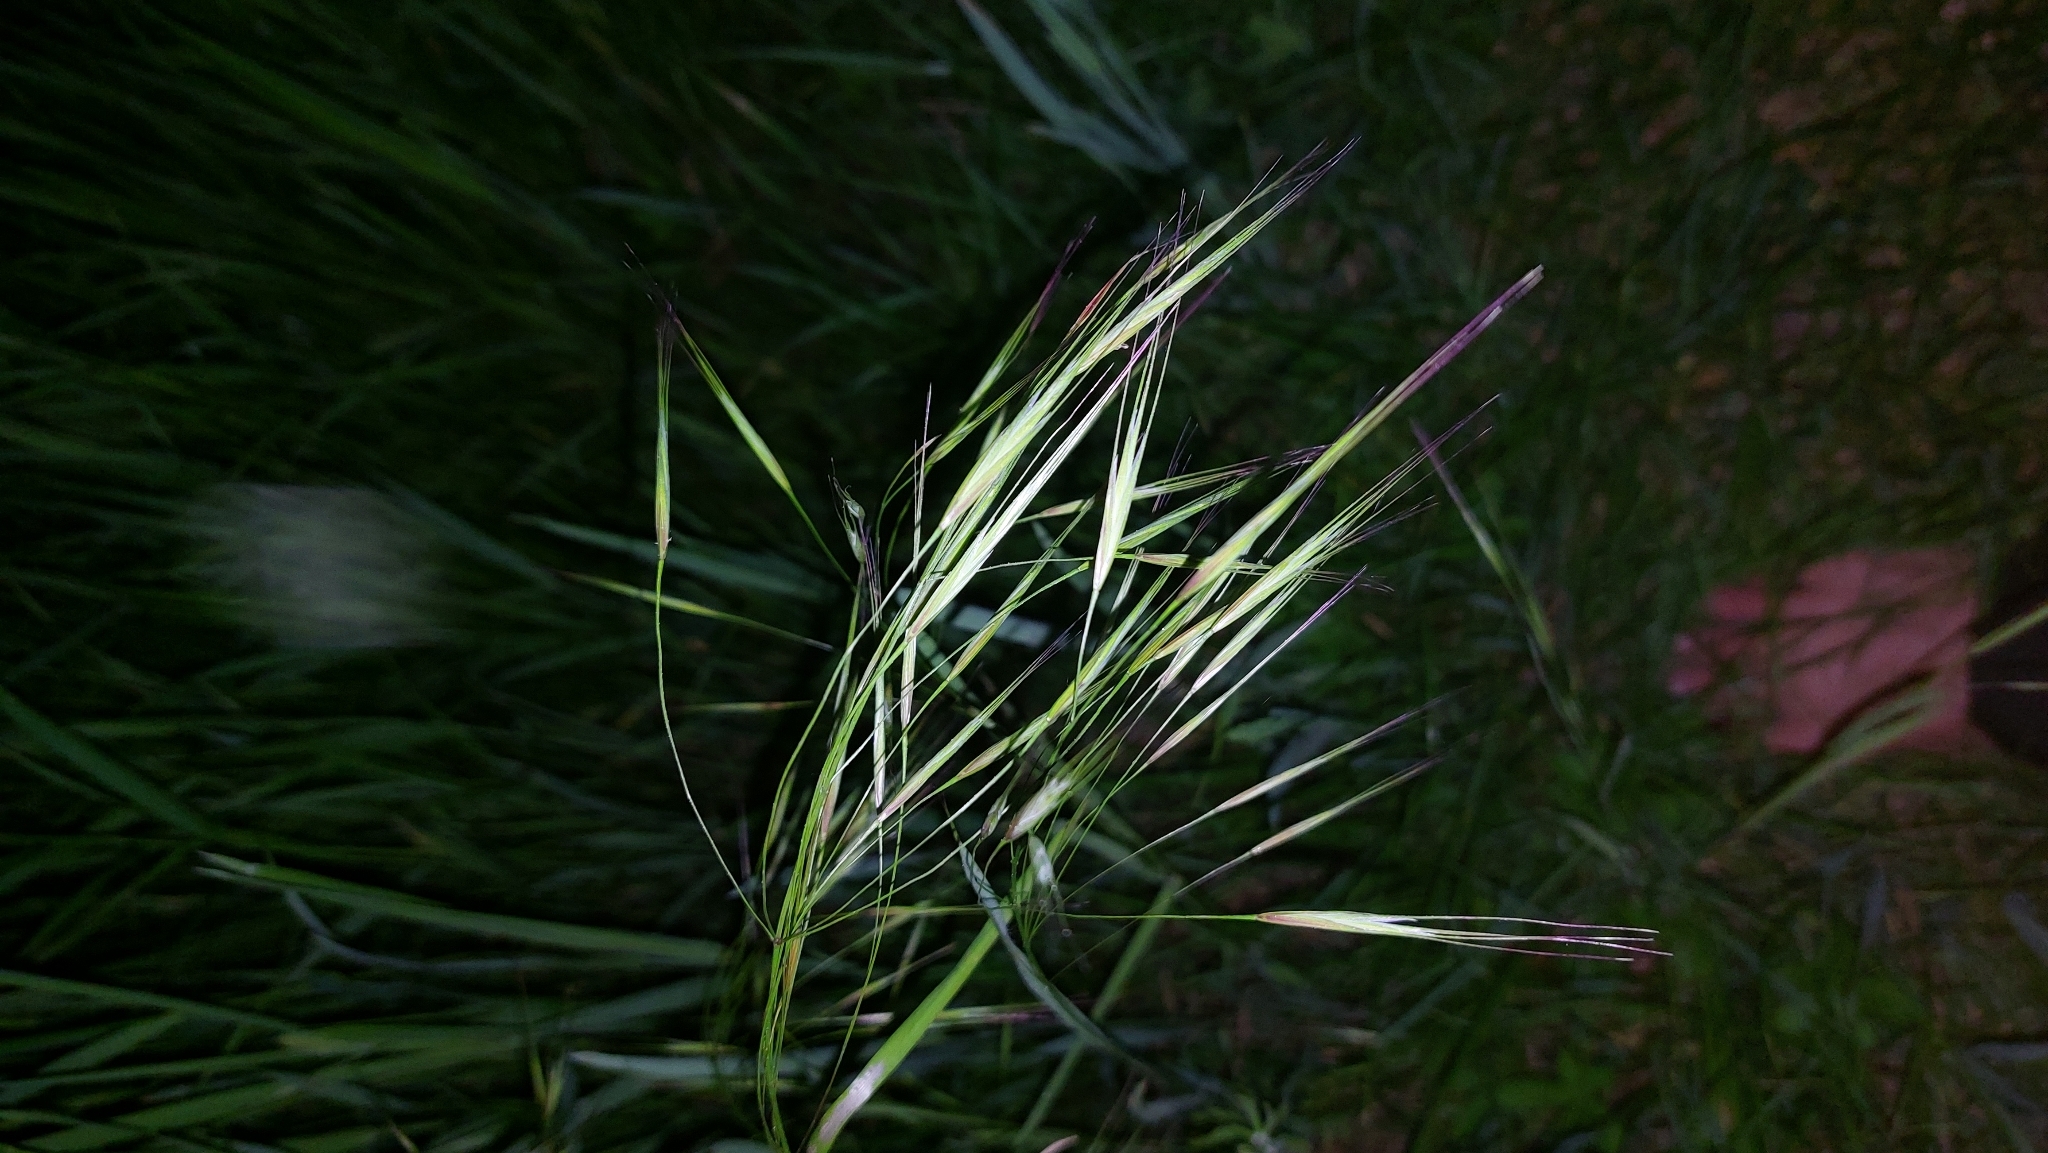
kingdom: Plantae
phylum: Tracheophyta
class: Liliopsida
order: Poales
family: Poaceae
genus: Bromus
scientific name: Bromus sterilis
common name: Poverty brome
